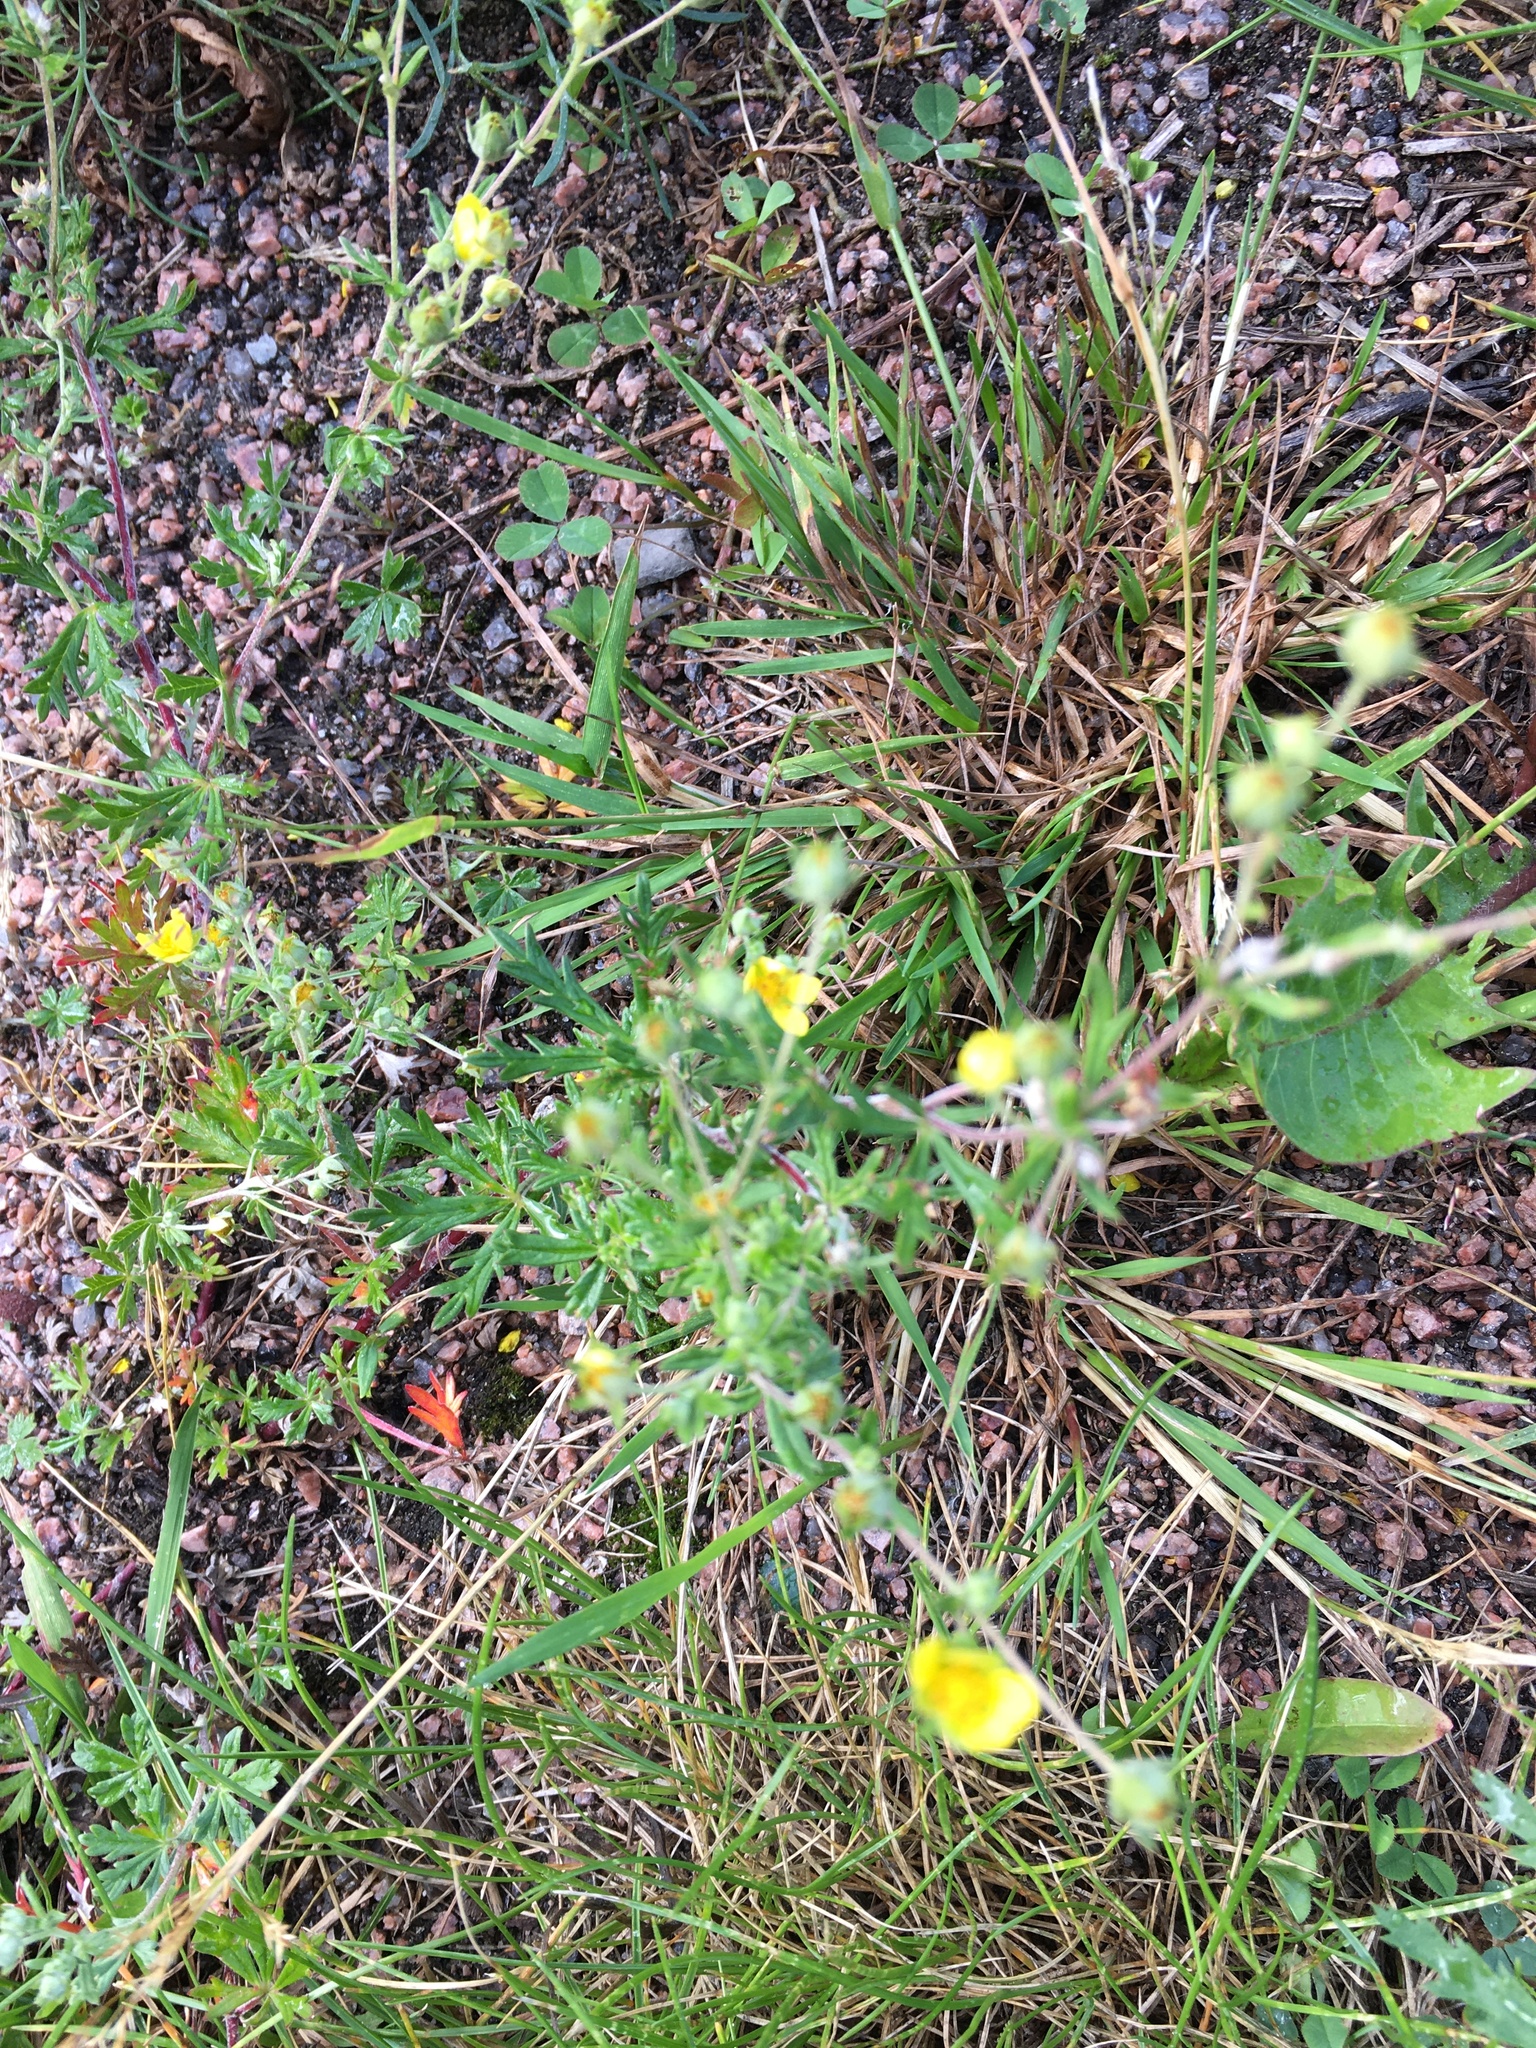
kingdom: Plantae
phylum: Tracheophyta
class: Magnoliopsida
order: Rosales
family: Rosaceae
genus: Potentilla
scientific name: Potentilla argentea
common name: Hoary cinquefoil
